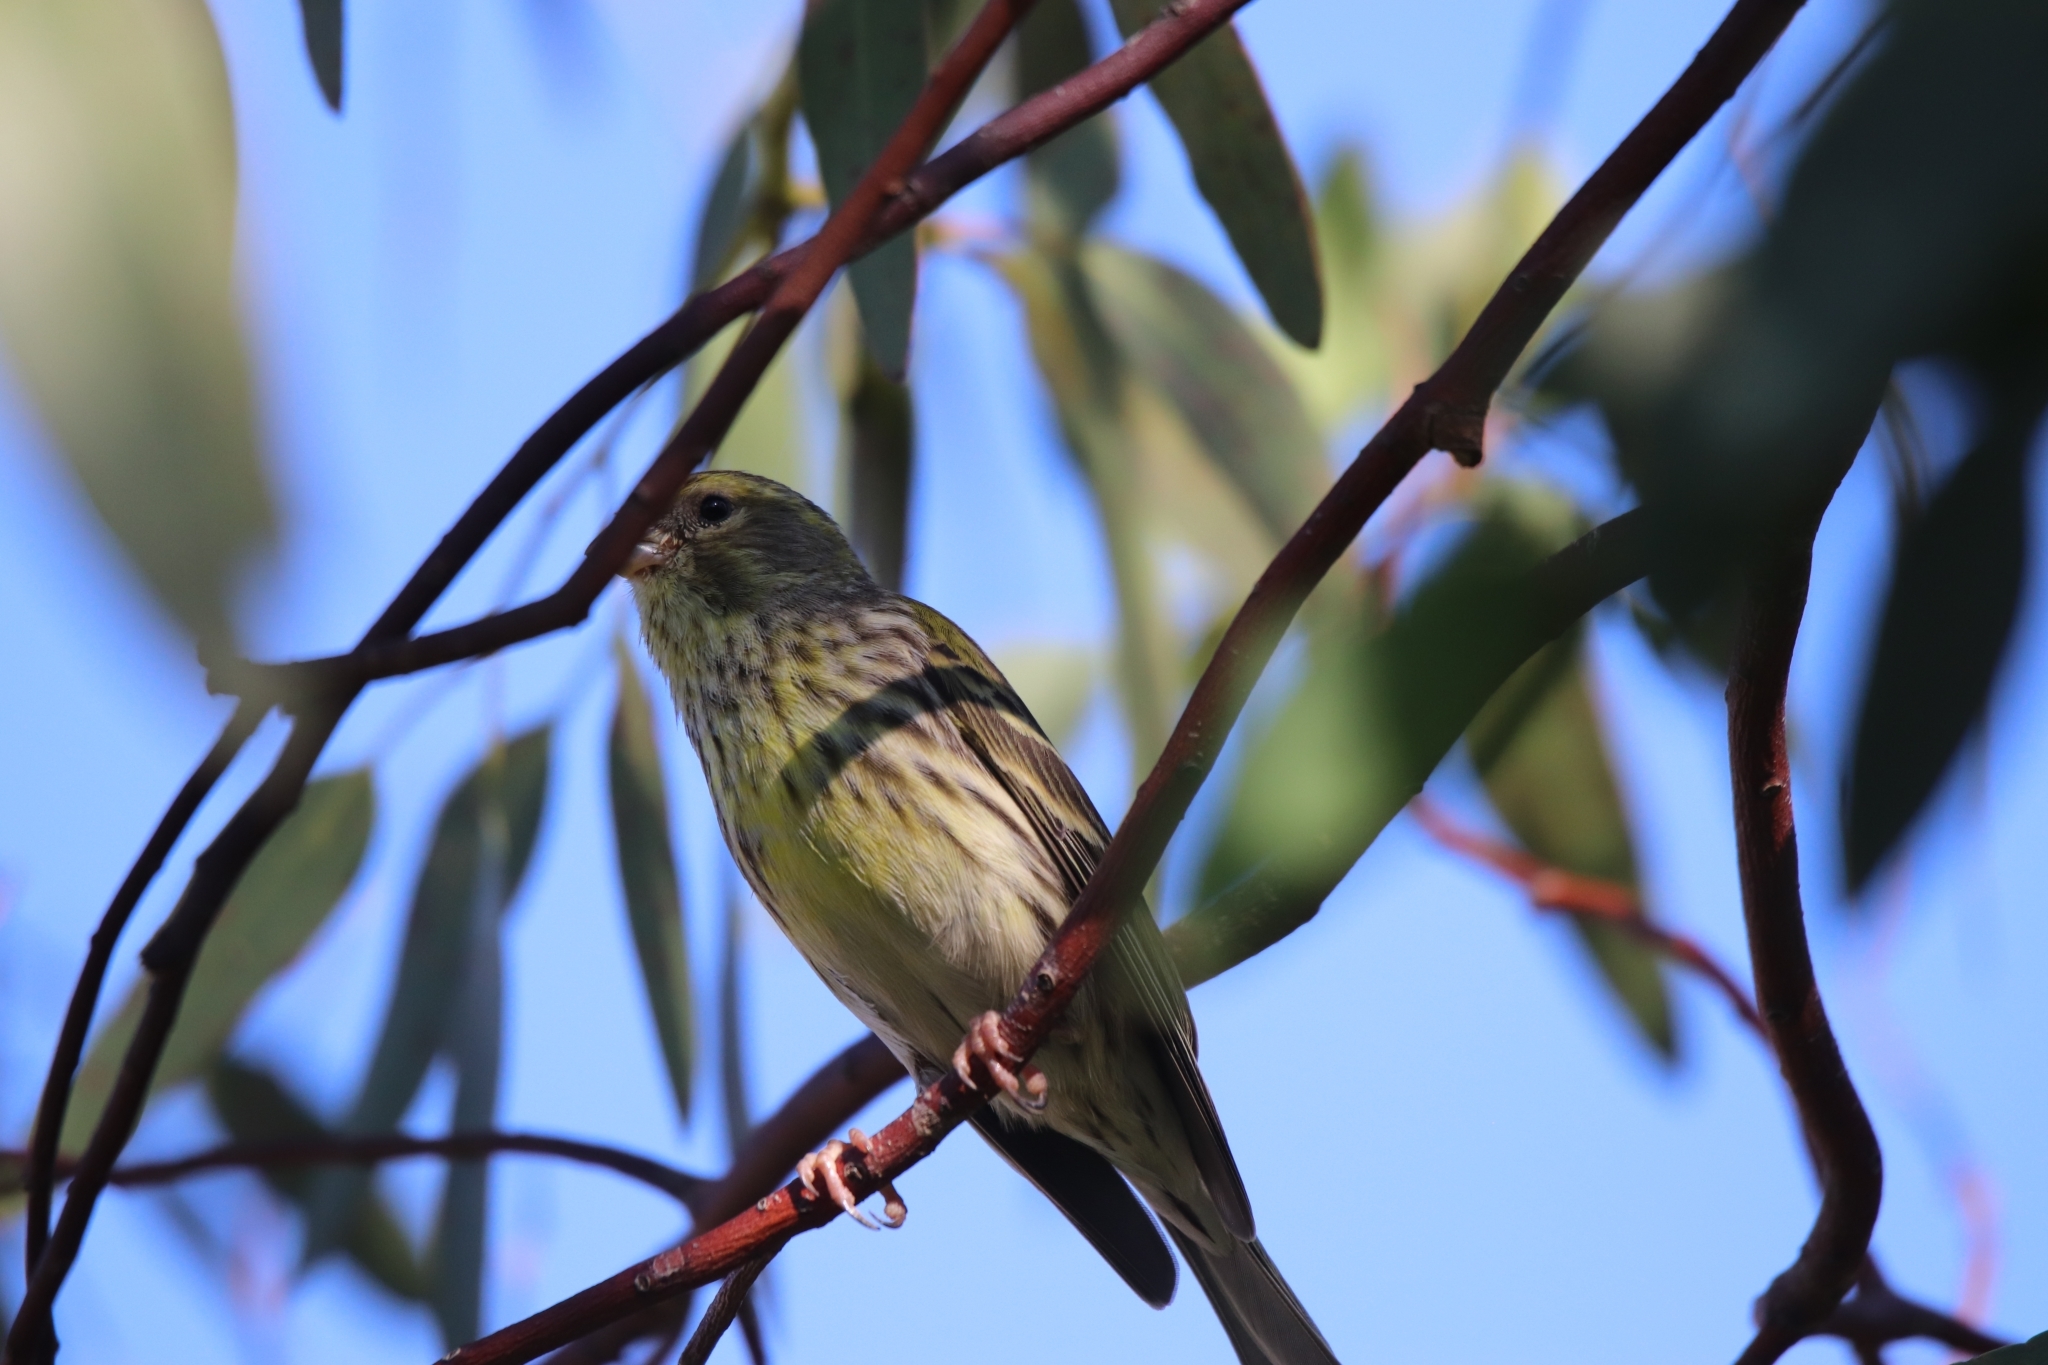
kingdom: Animalia
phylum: Chordata
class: Aves
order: Passeriformes
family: Fringillidae
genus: Serinus
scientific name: Serinus serinus
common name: European serin
